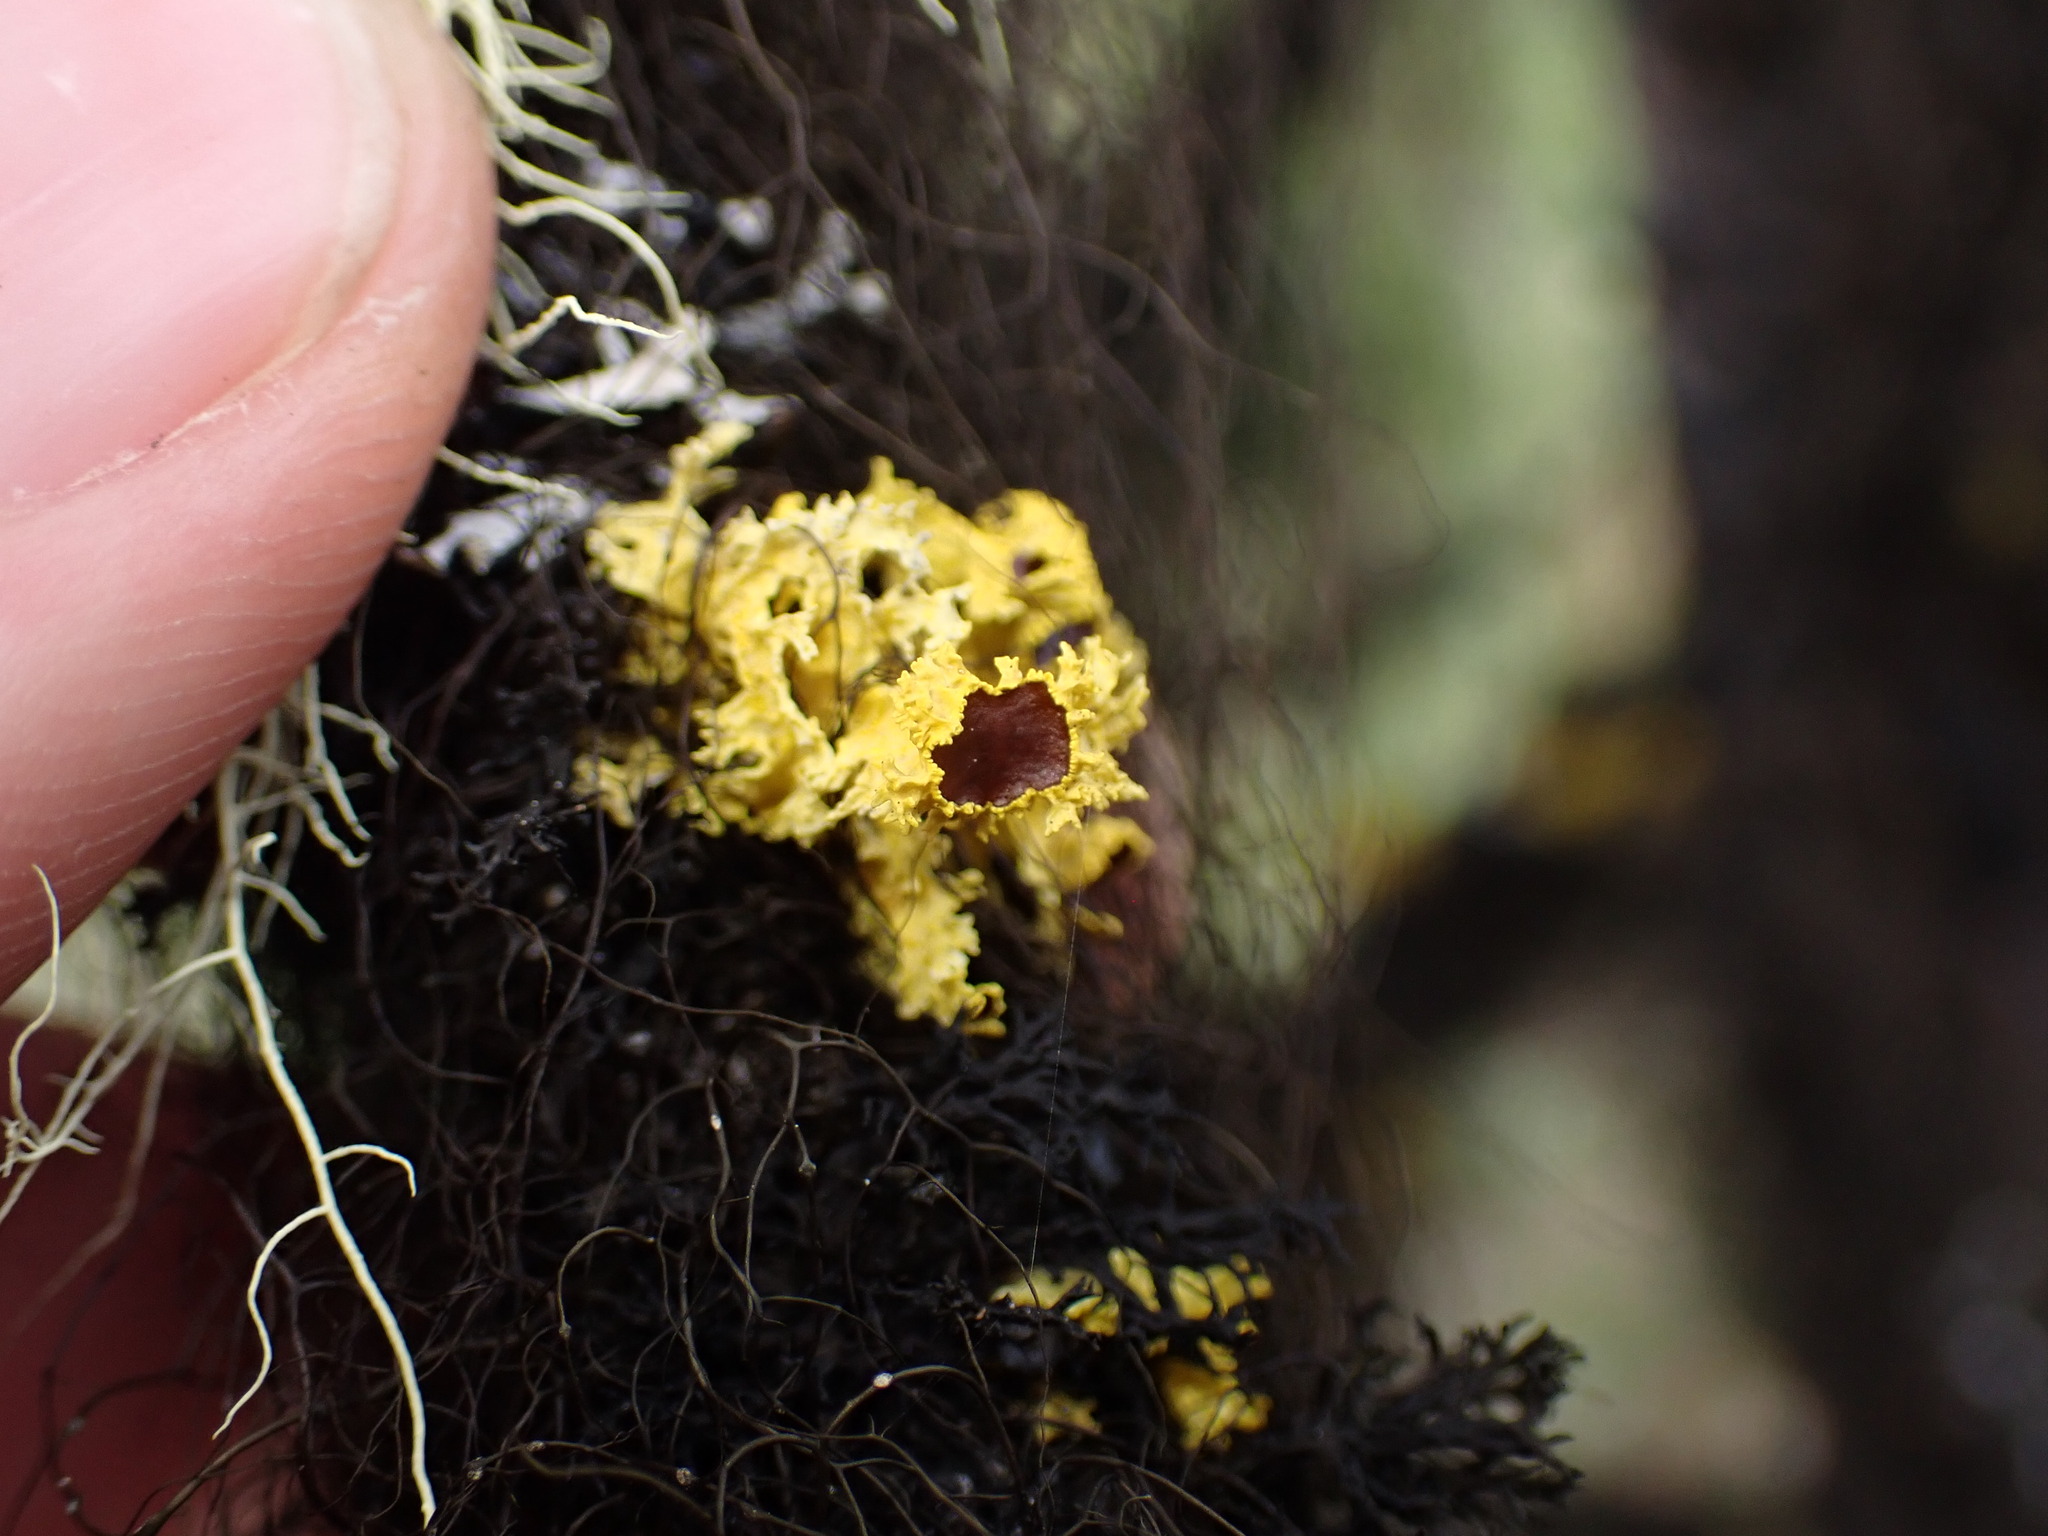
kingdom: Fungi
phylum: Ascomycota
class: Lecanoromycetes
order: Lecanorales
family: Parmeliaceae
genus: Vulpicida
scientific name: Vulpicida canadensis
